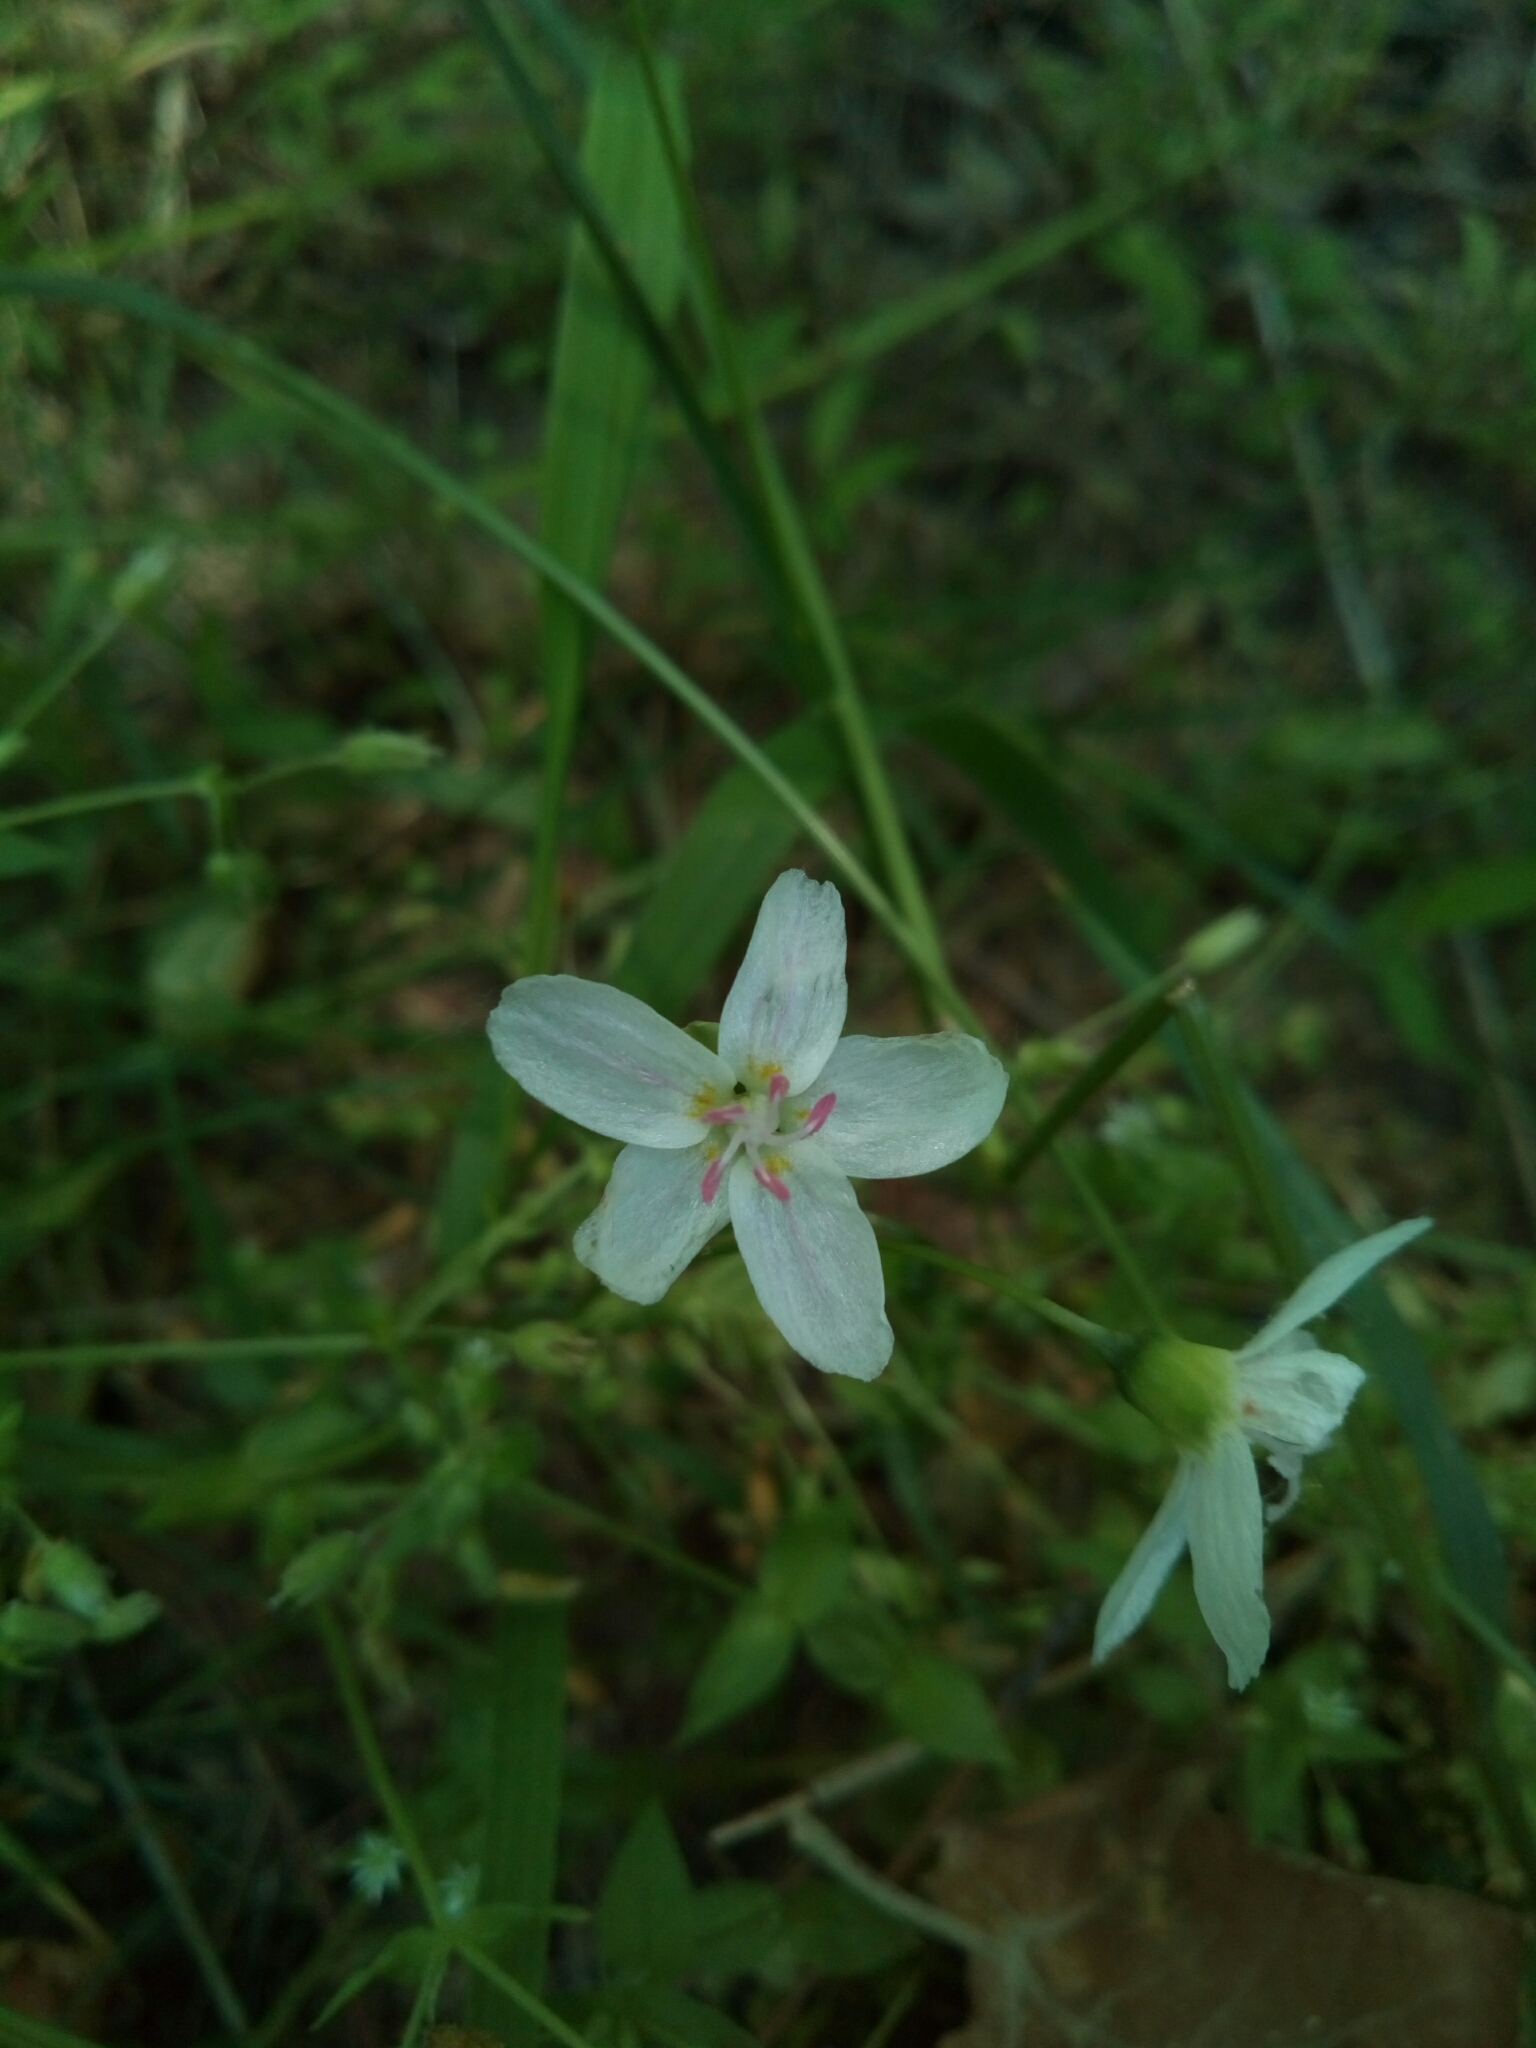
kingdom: Plantae
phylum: Tracheophyta
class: Magnoliopsida
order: Caryophyllales
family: Montiaceae
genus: Claytonia
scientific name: Claytonia virginica
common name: Virginia springbeauty
